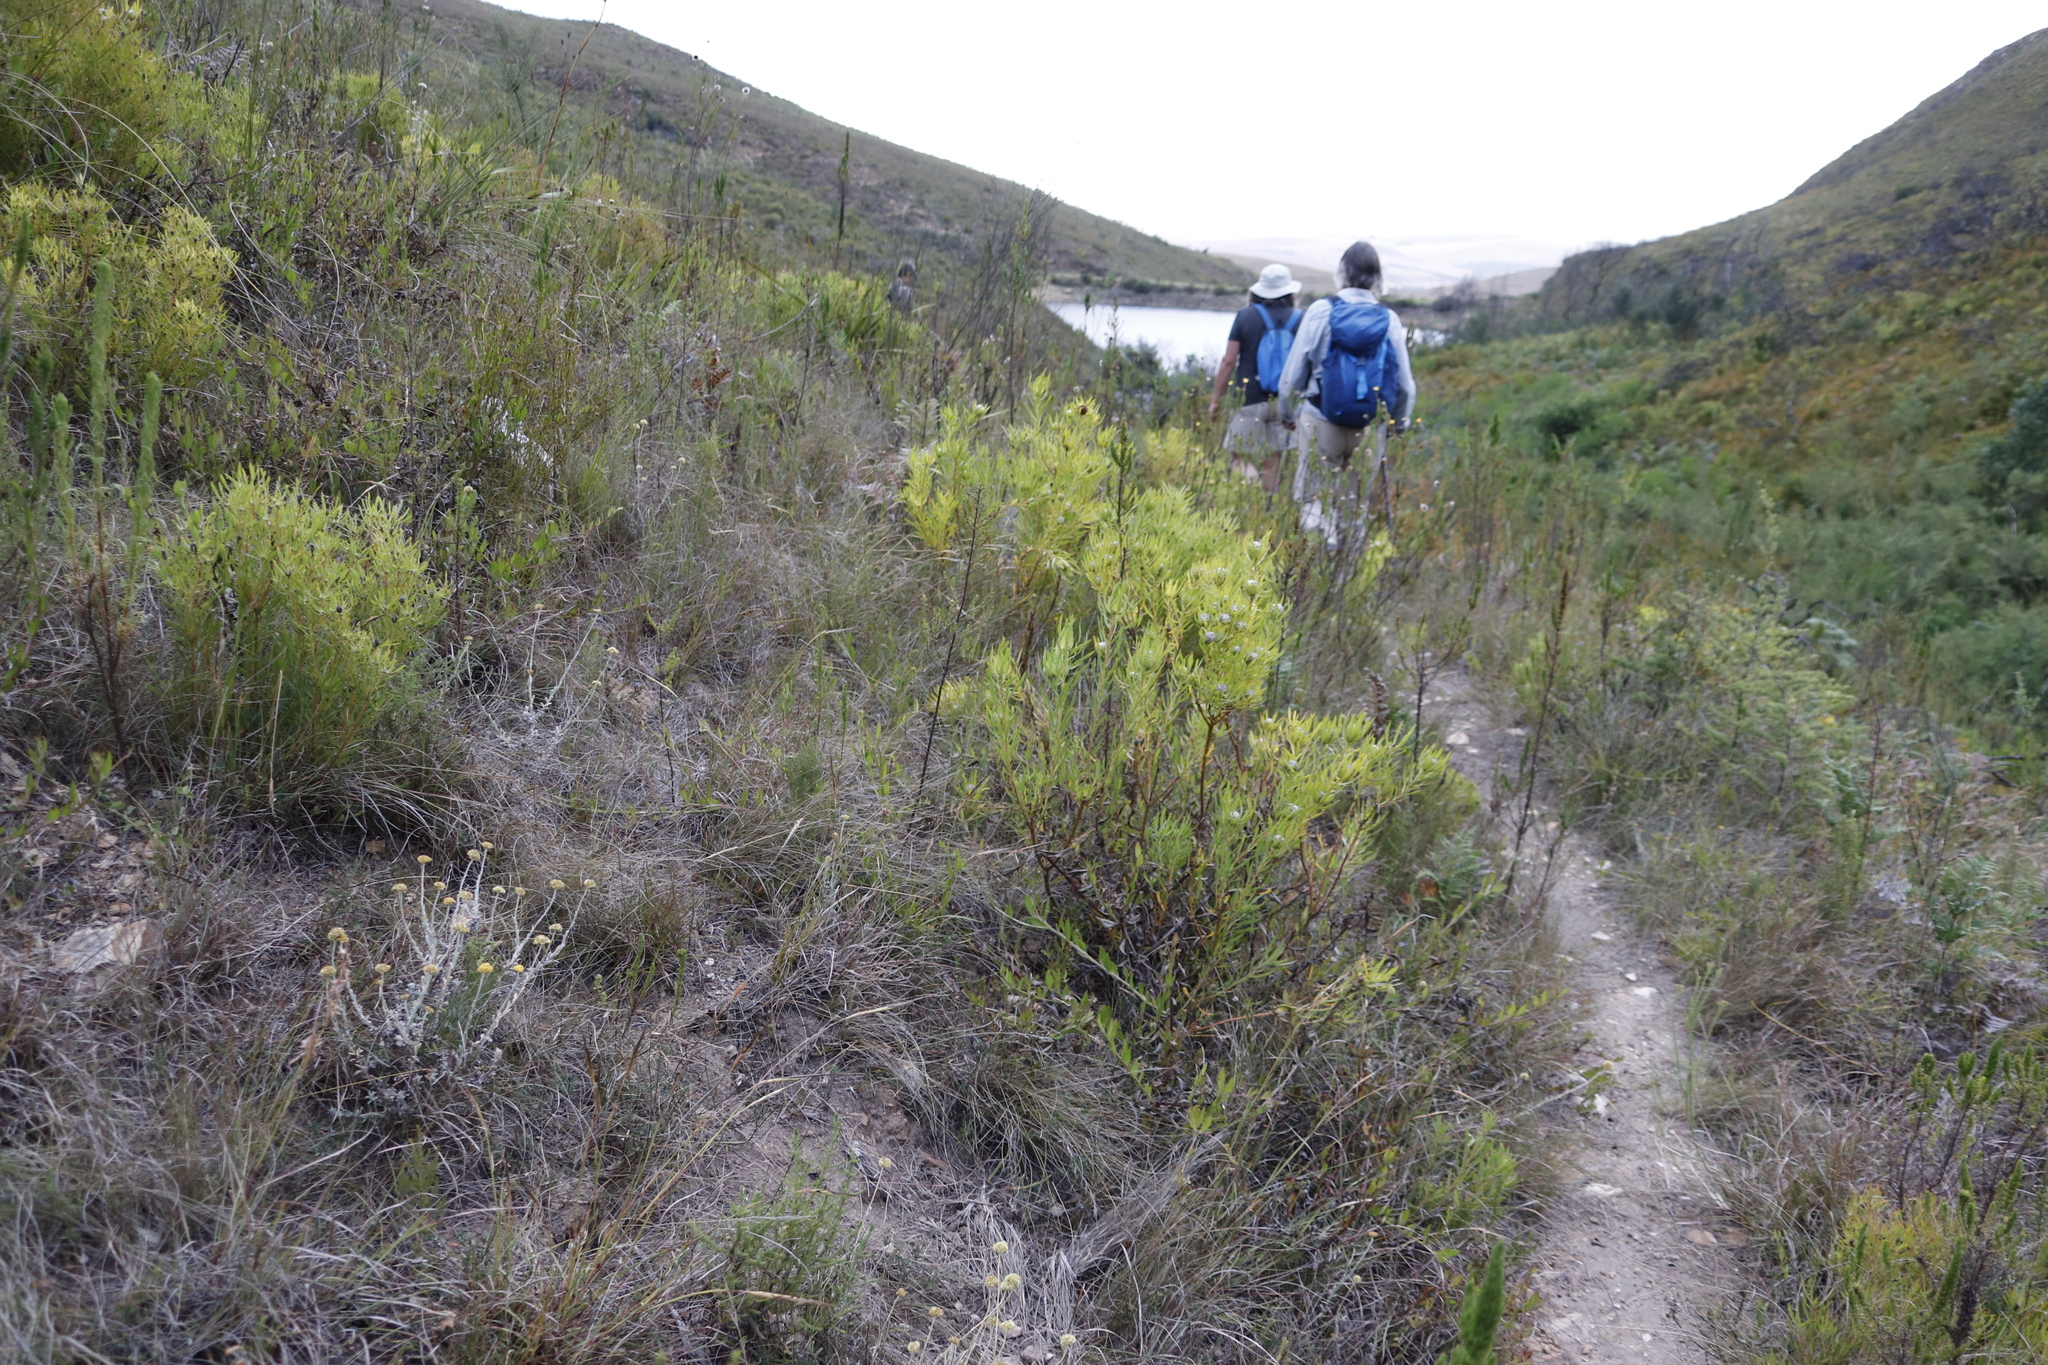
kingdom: Plantae
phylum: Tracheophyta
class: Magnoliopsida
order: Proteales
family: Proteaceae
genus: Leucadendron
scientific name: Leucadendron salignum
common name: Common sunshine conebush
